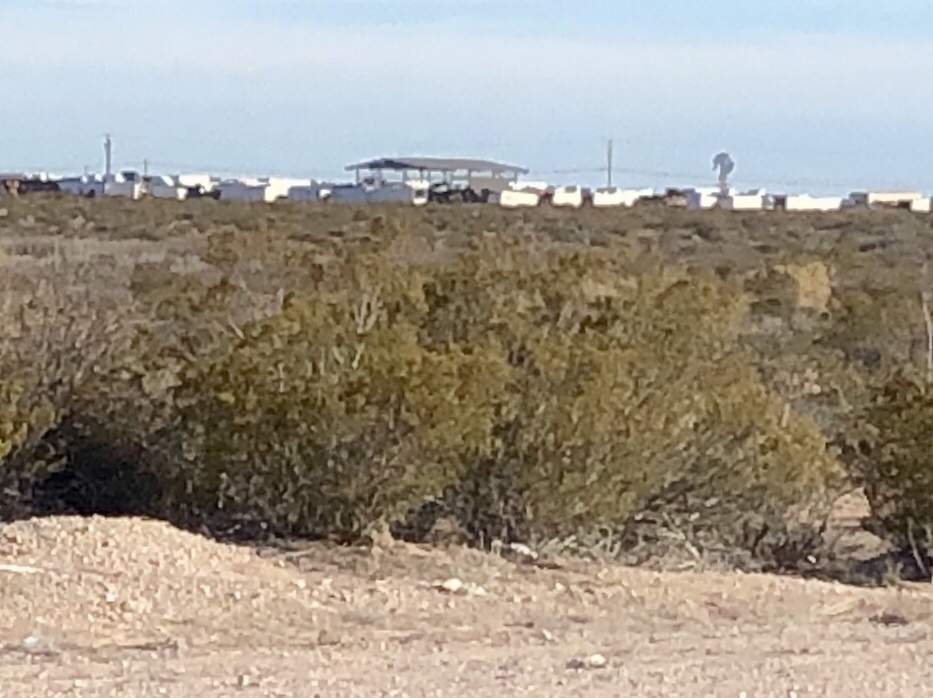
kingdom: Plantae
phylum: Tracheophyta
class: Magnoliopsida
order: Zygophyllales
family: Zygophyllaceae
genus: Larrea
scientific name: Larrea tridentata
